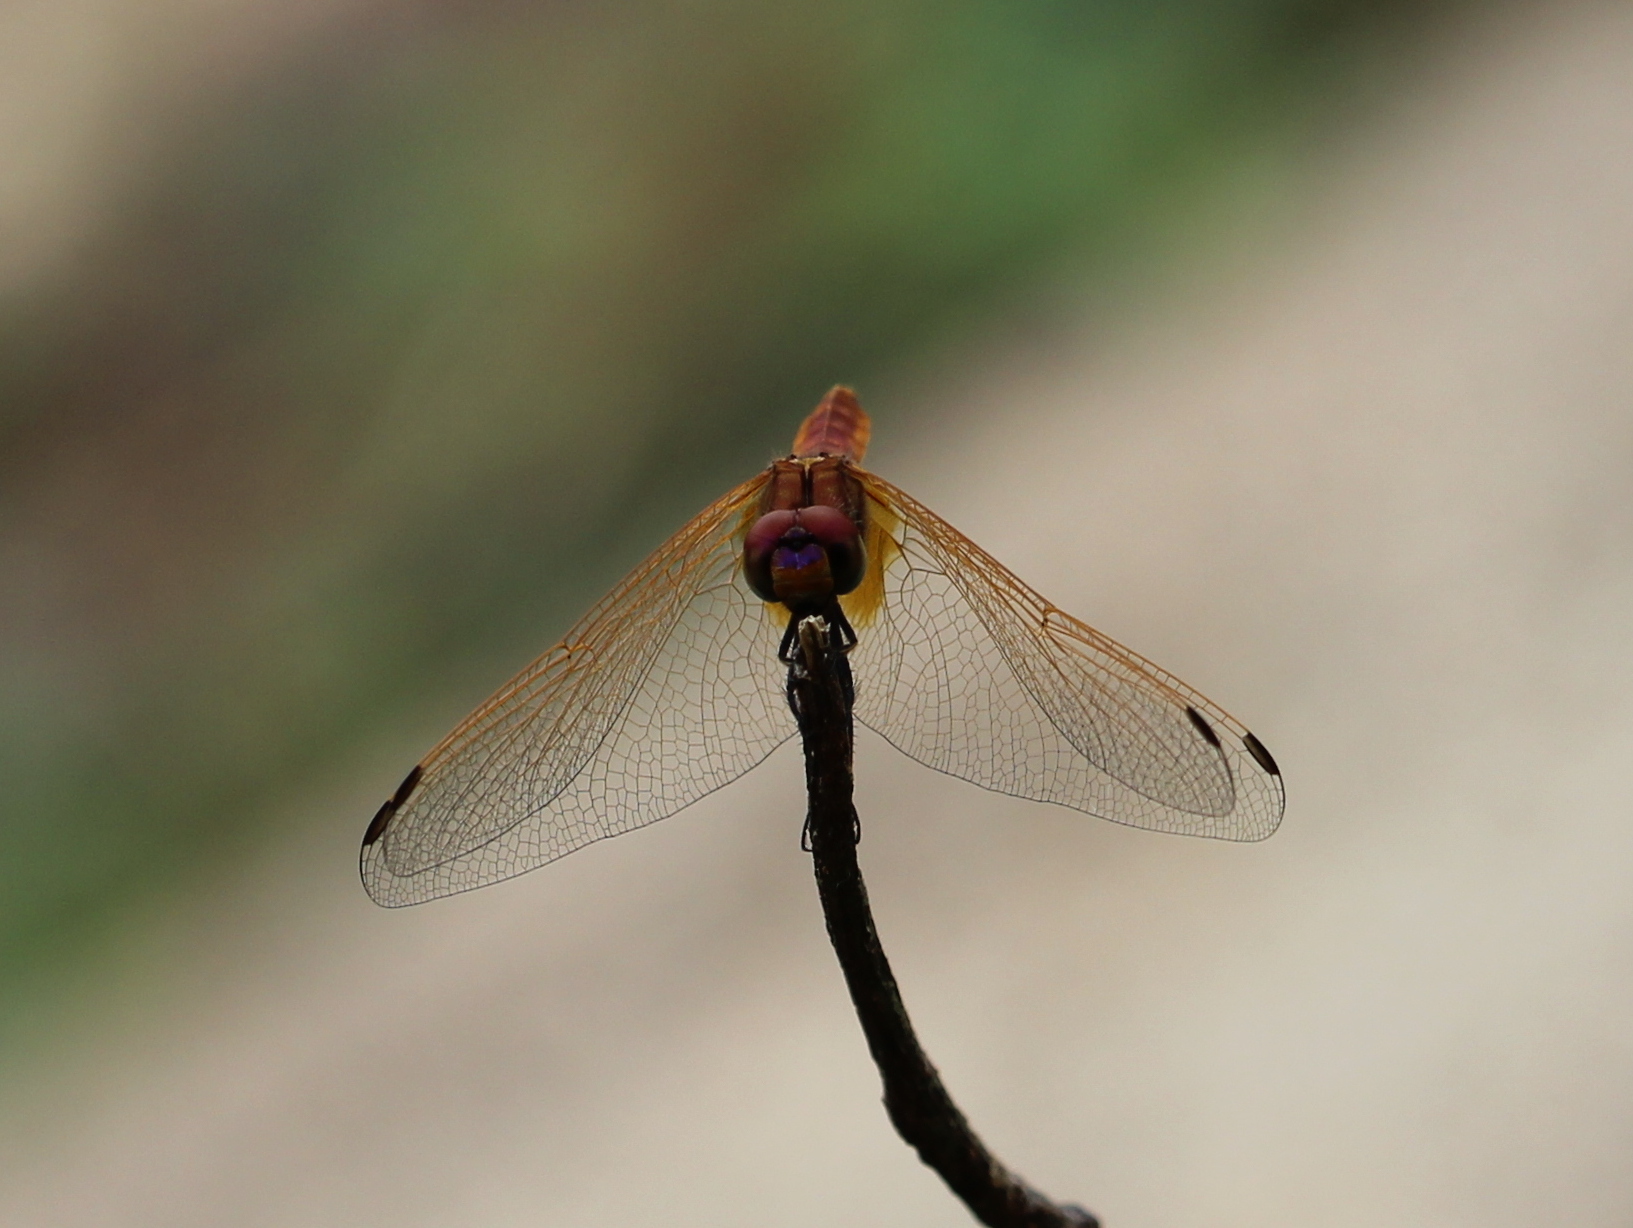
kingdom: Animalia
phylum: Arthropoda
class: Insecta
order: Odonata
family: Libellulidae
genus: Trithemis
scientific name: Trithemis aurora
